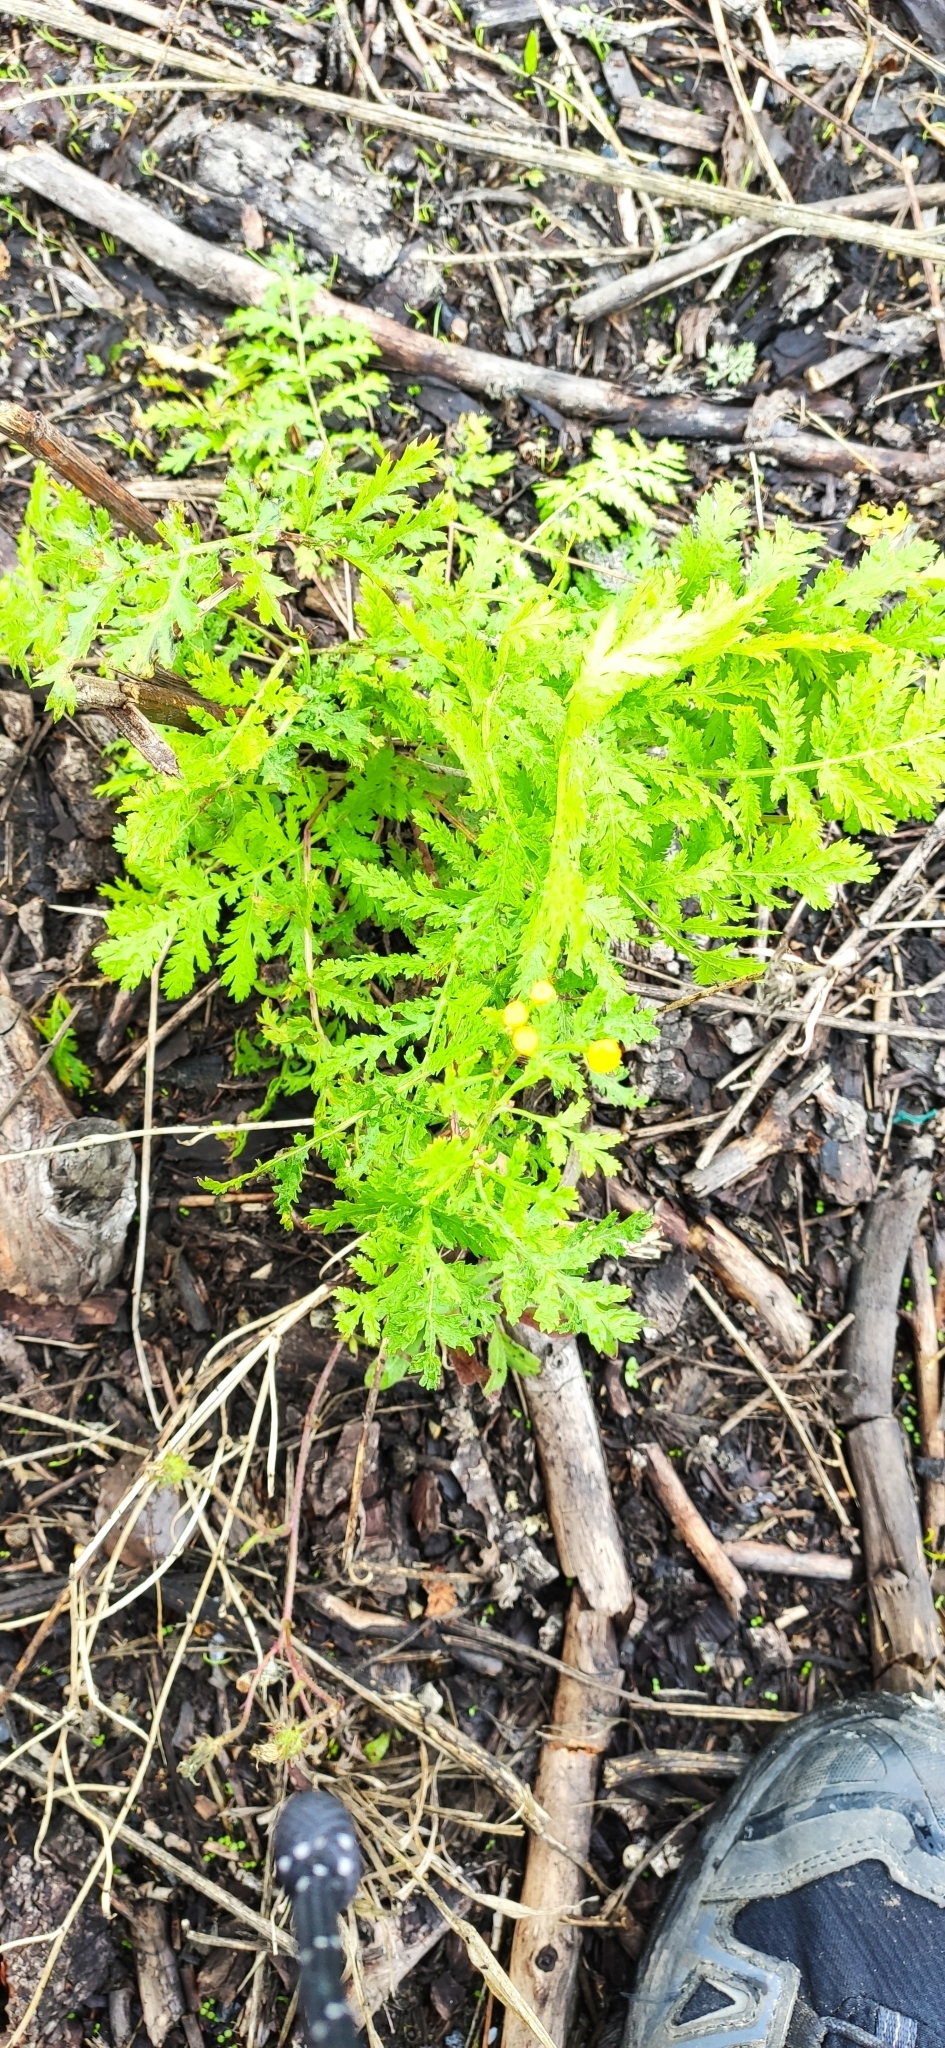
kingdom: Plantae
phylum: Tracheophyta
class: Magnoliopsida
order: Asterales
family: Asteraceae
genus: Tanacetum
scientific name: Tanacetum vulgare
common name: Common tansy
